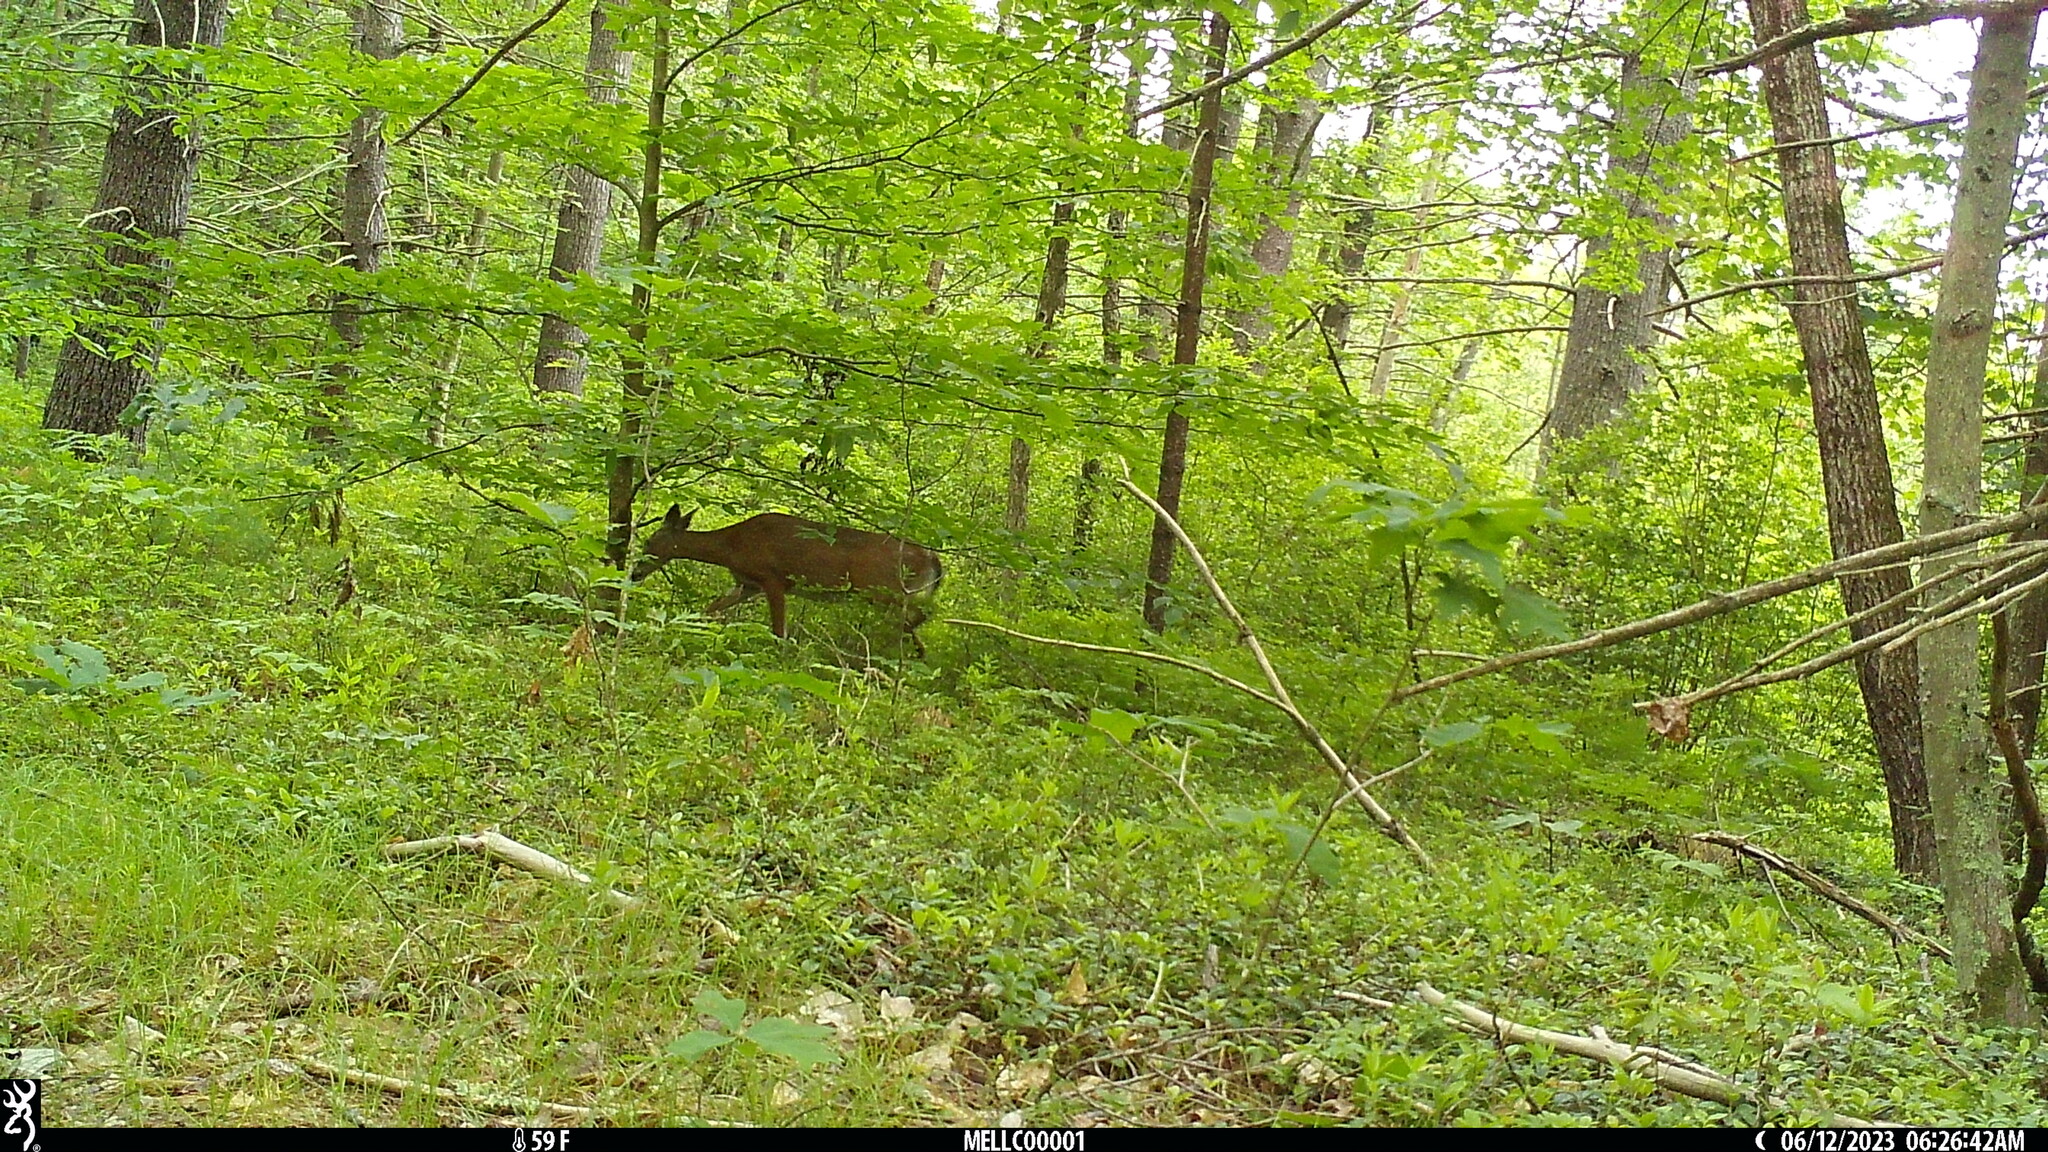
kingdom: Animalia
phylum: Chordata
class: Mammalia
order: Artiodactyla
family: Cervidae
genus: Odocoileus
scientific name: Odocoileus virginianus
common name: White-tailed deer
